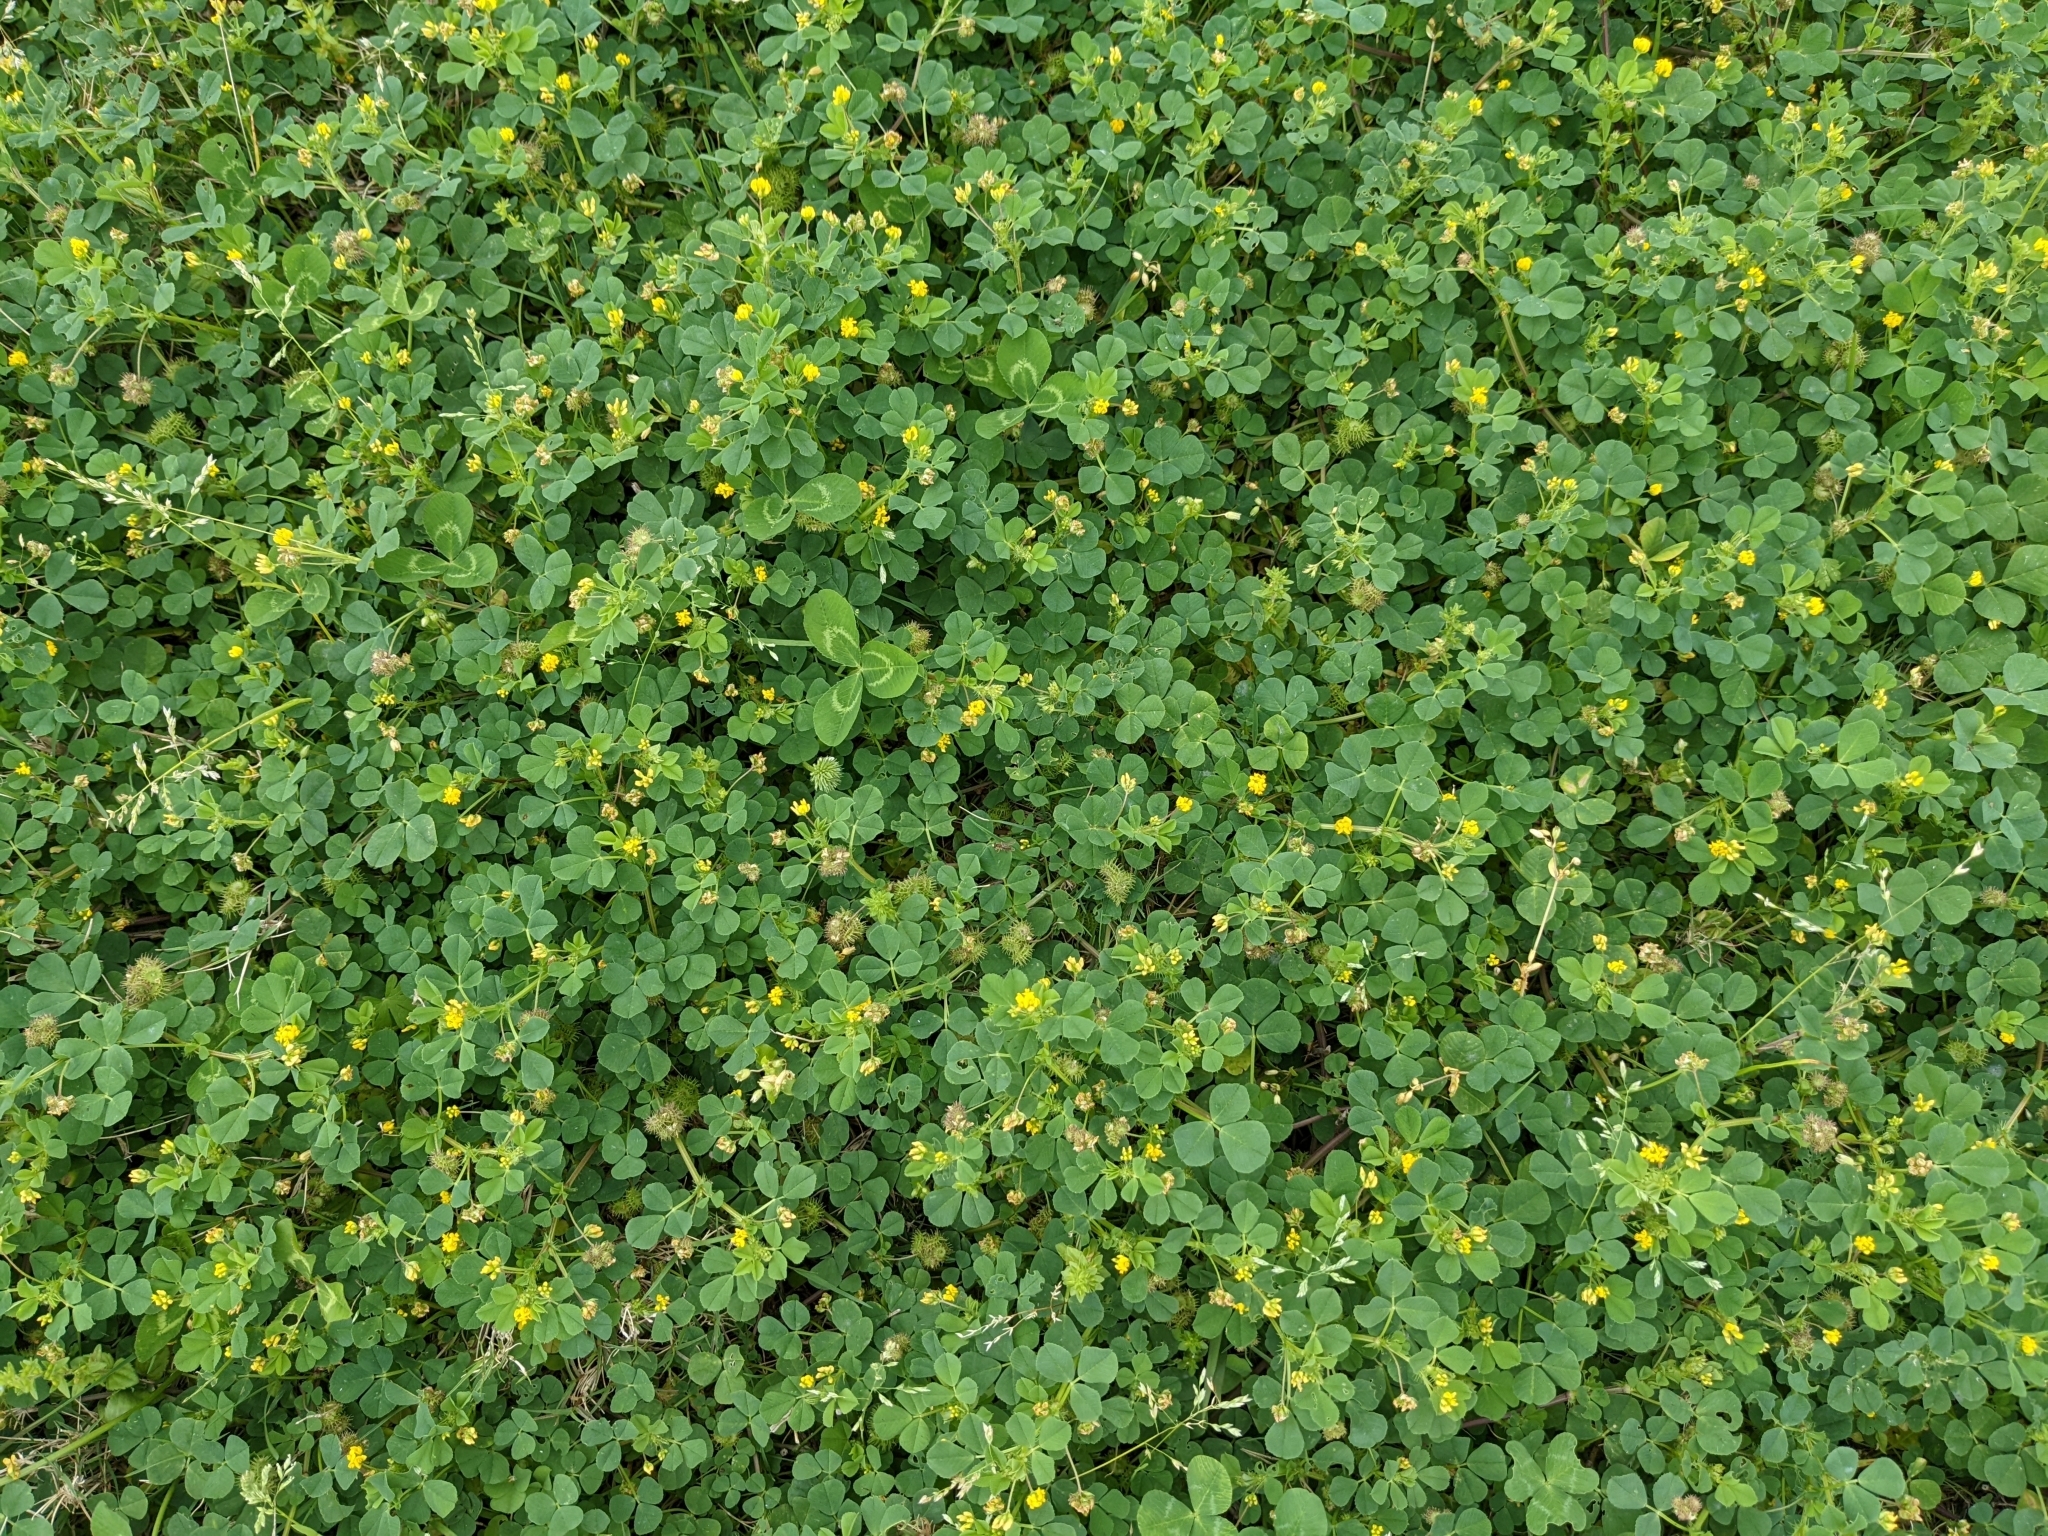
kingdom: Plantae
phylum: Tracheophyta
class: Magnoliopsida
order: Fabales
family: Fabaceae
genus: Medicago
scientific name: Medicago polymorpha
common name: Burclover
